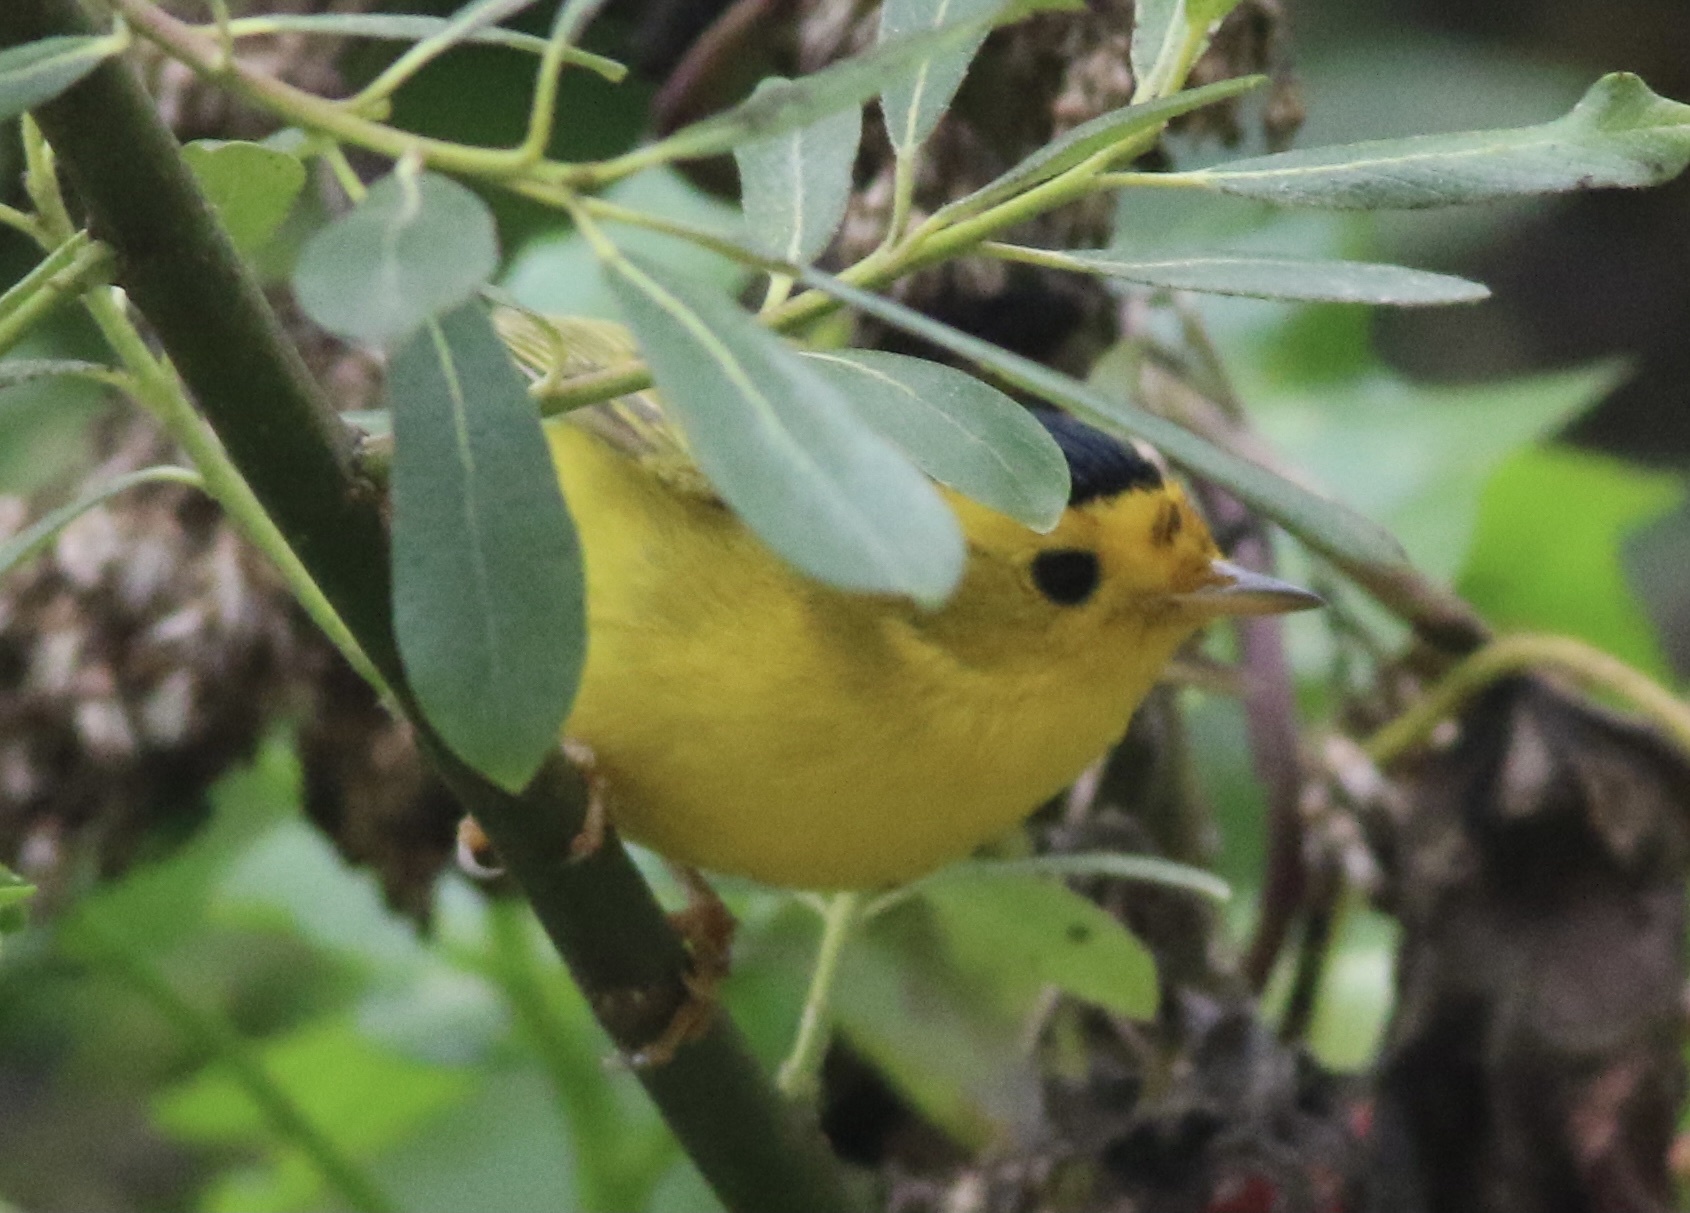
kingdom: Animalia
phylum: Chordata
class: Aves
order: Passeriformes
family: Parulidae
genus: Cardellina
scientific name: Cardellina pusilla
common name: Wilson's warbler
